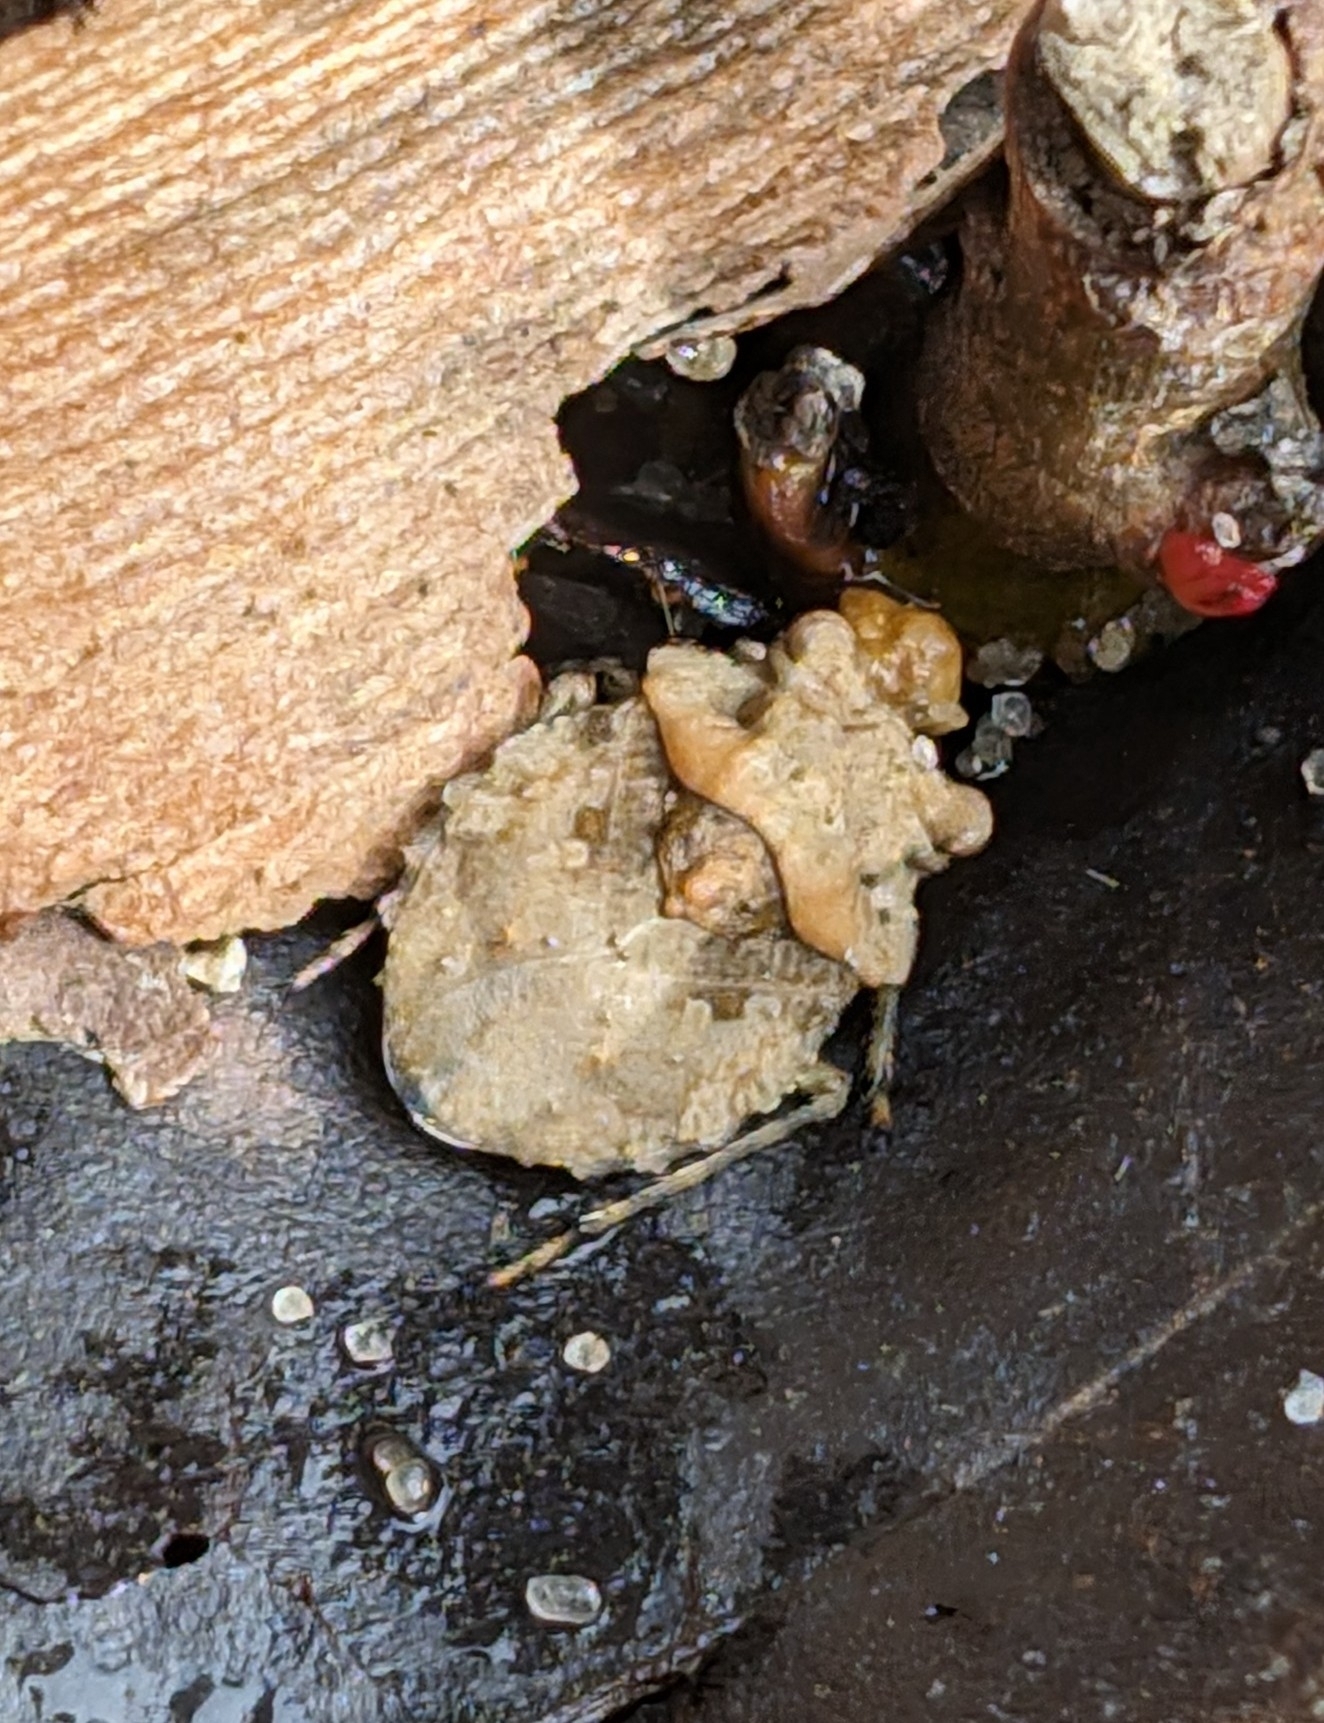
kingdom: Animalia
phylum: Arthropoda
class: Insecta
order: Hemiptera
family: Gelastocoridae
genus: Gelastocoris
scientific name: Gelastocoris oculatus
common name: Toad bug
